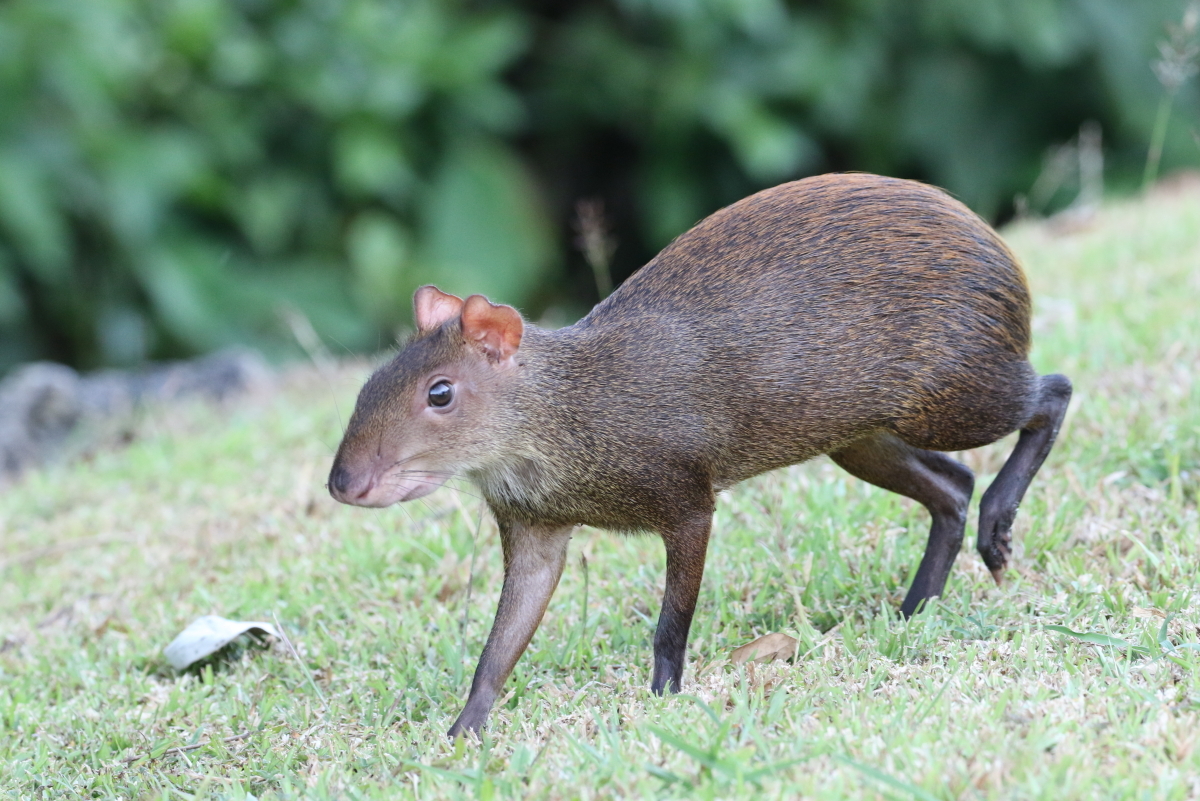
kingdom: Animalia
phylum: Chordata
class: Mammalia
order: Rodentia
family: Dasyproctidae
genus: Dasyprocta
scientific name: Dasyprocta punctata
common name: Central american agouti
